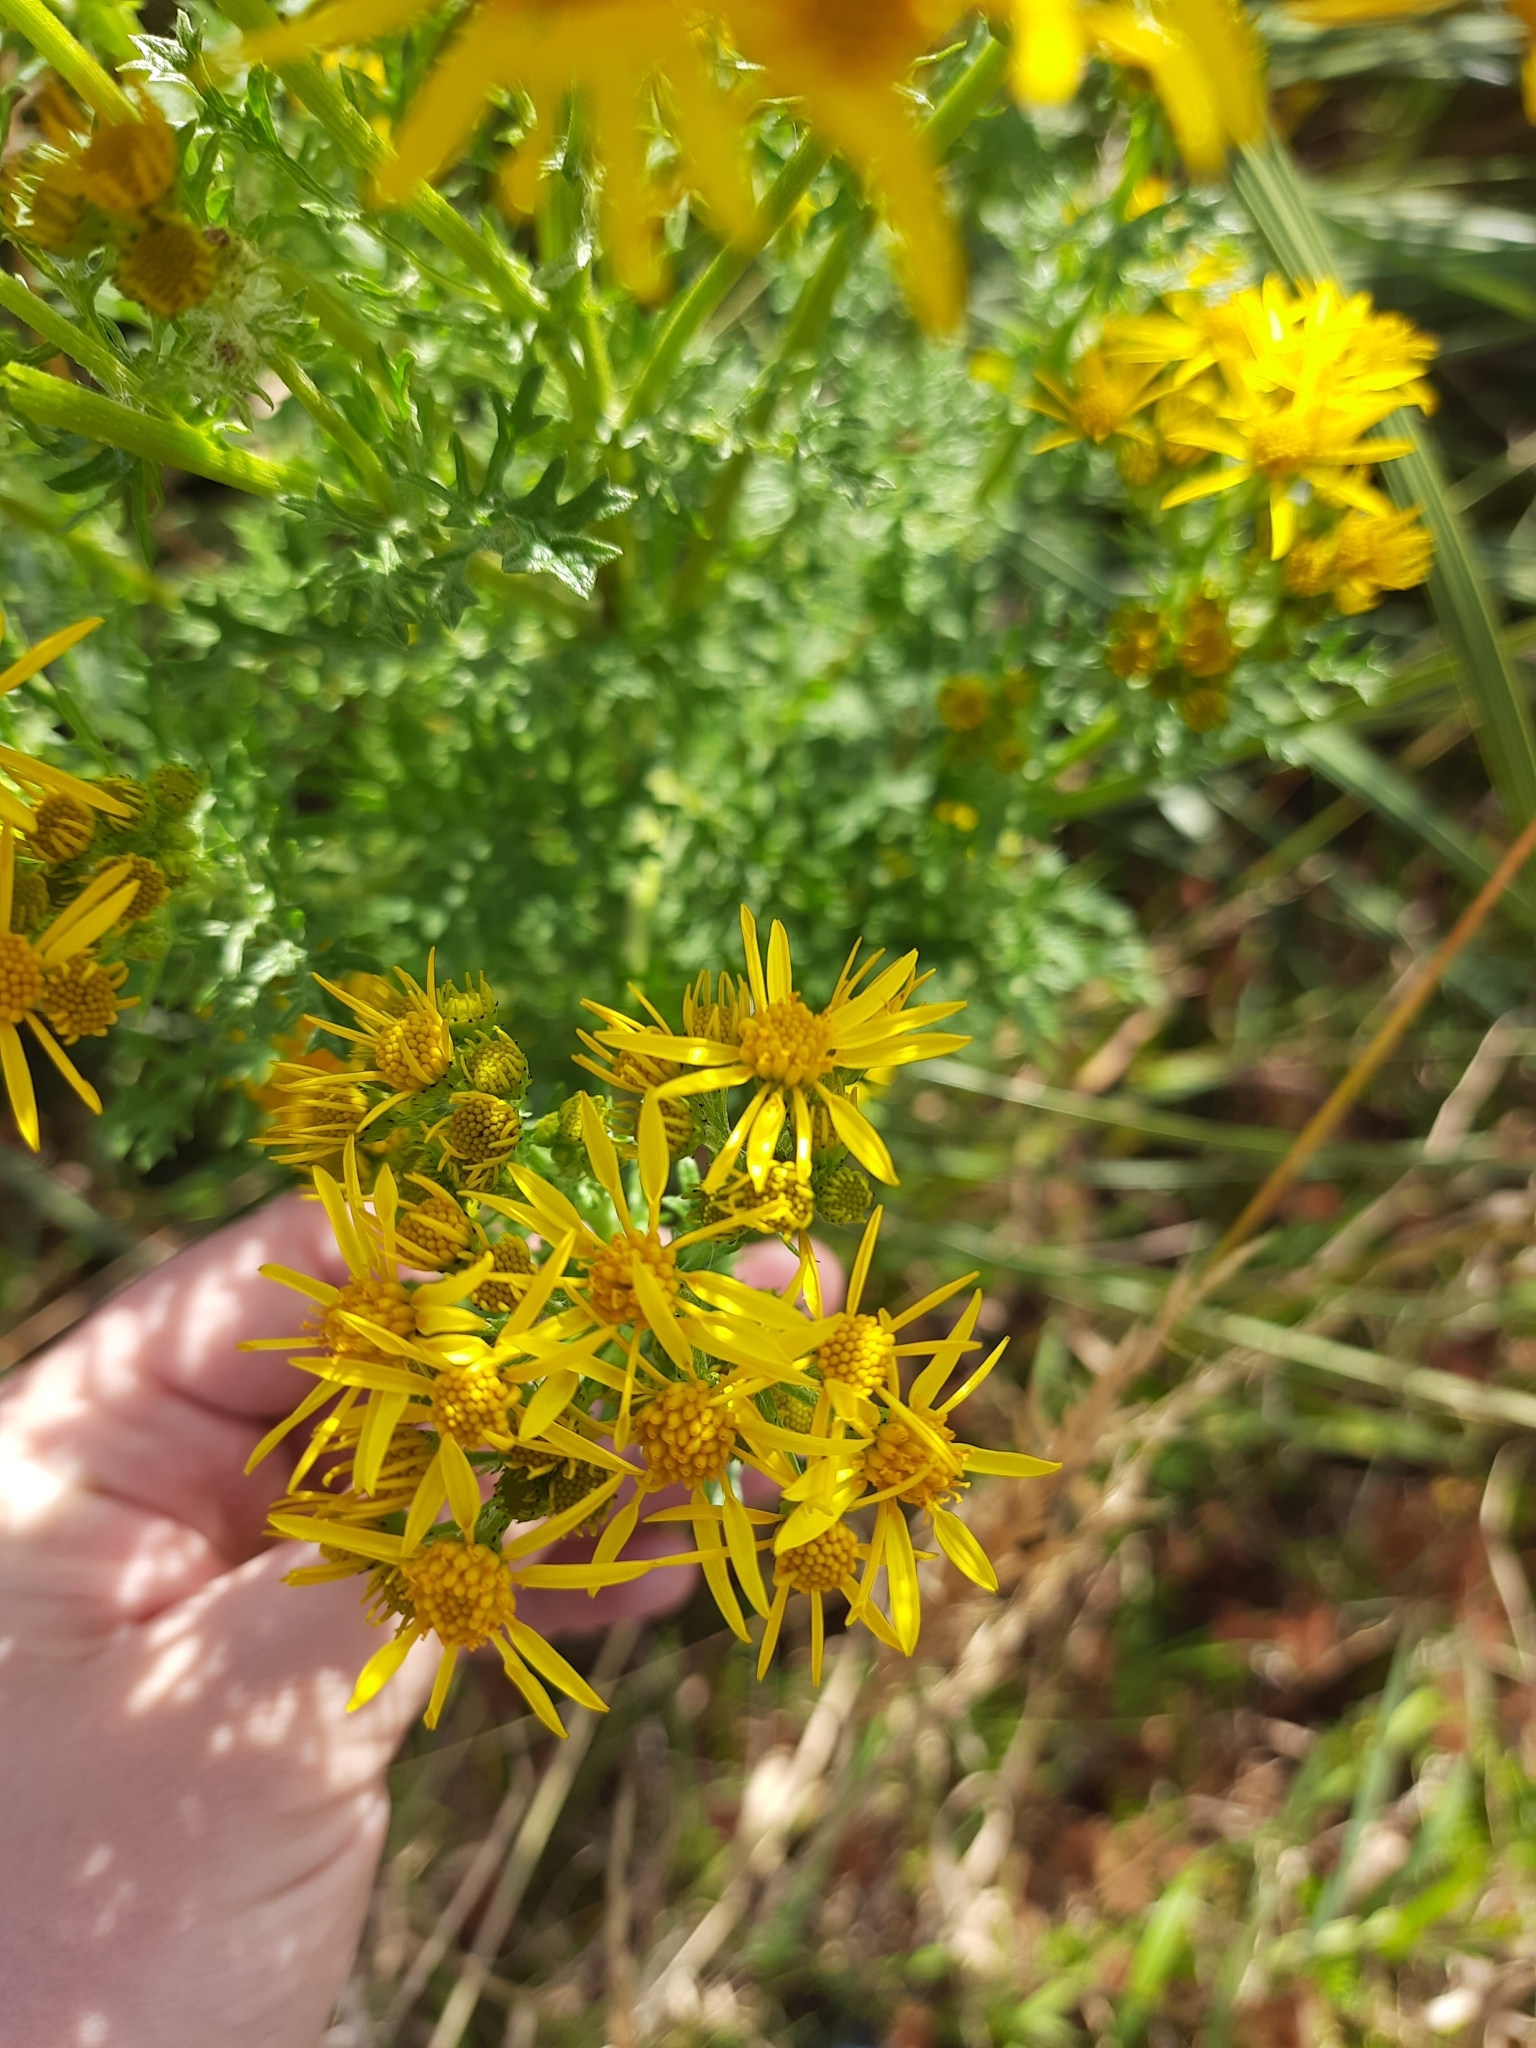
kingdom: Plantae
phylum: Tracheophyta
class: Magnoliopsida
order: Asterales
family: Asteraceae
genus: Jacobaea
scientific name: Jacobaea vulgaris
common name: Stinking willie
